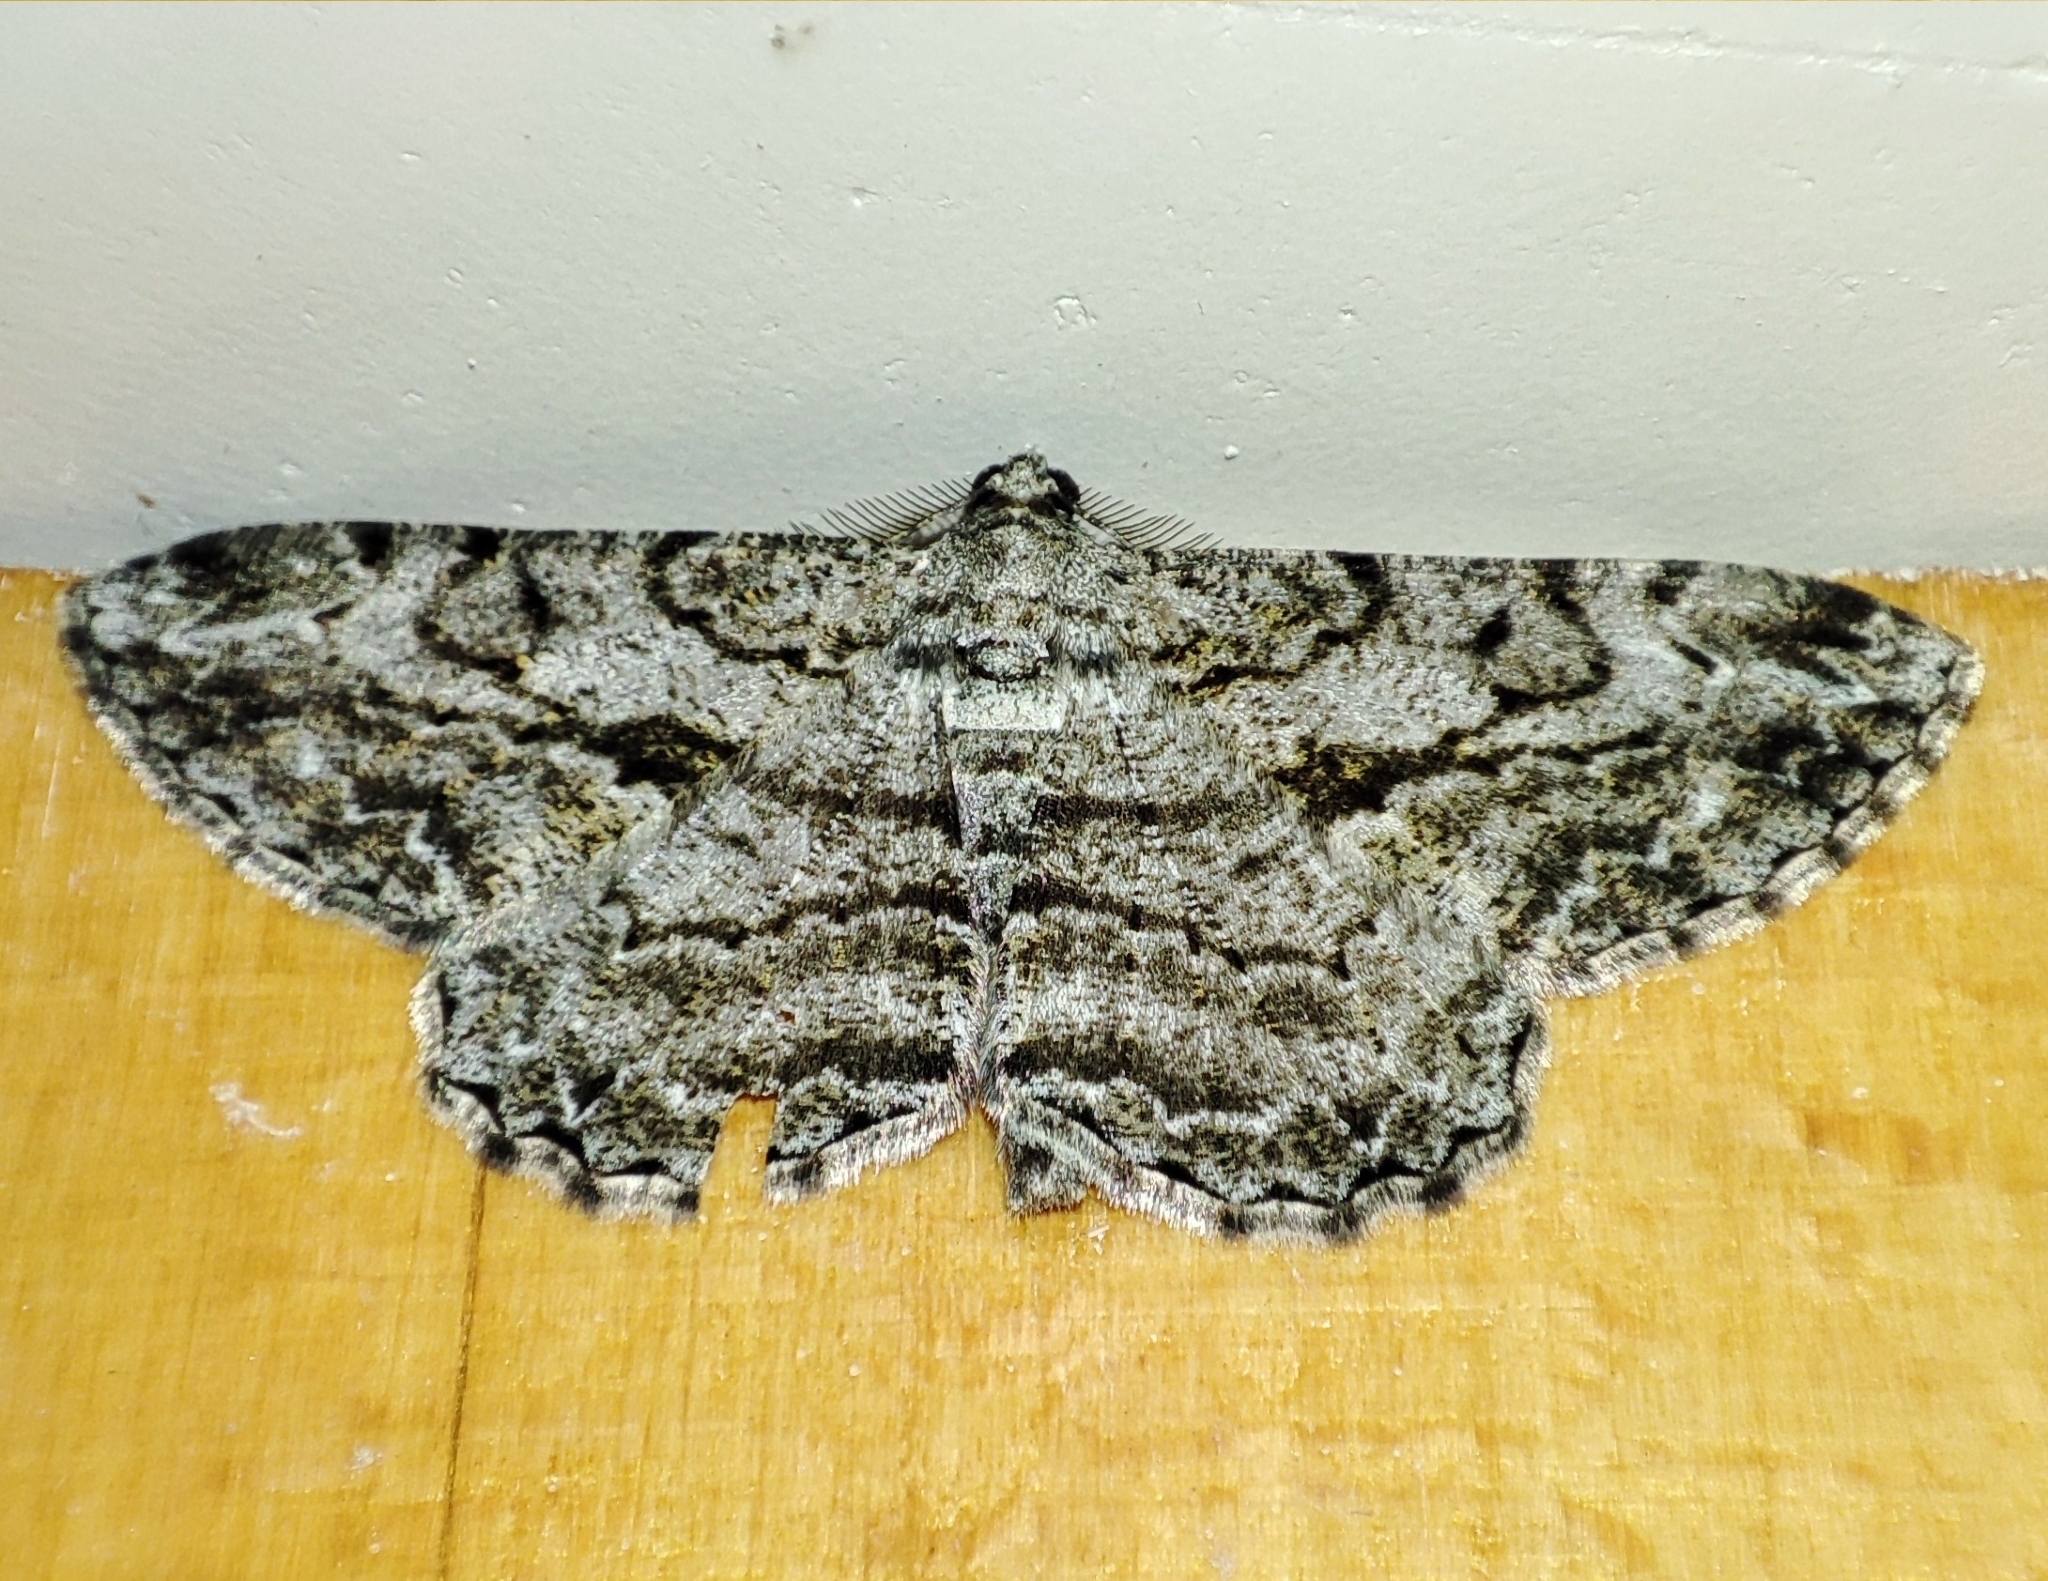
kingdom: Animalia
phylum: Arthropoda
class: Insecta
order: Lepidoptera
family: Geometridae
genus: Peribatodes
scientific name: Peribatodes rhomboidaria
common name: Willow beauty
